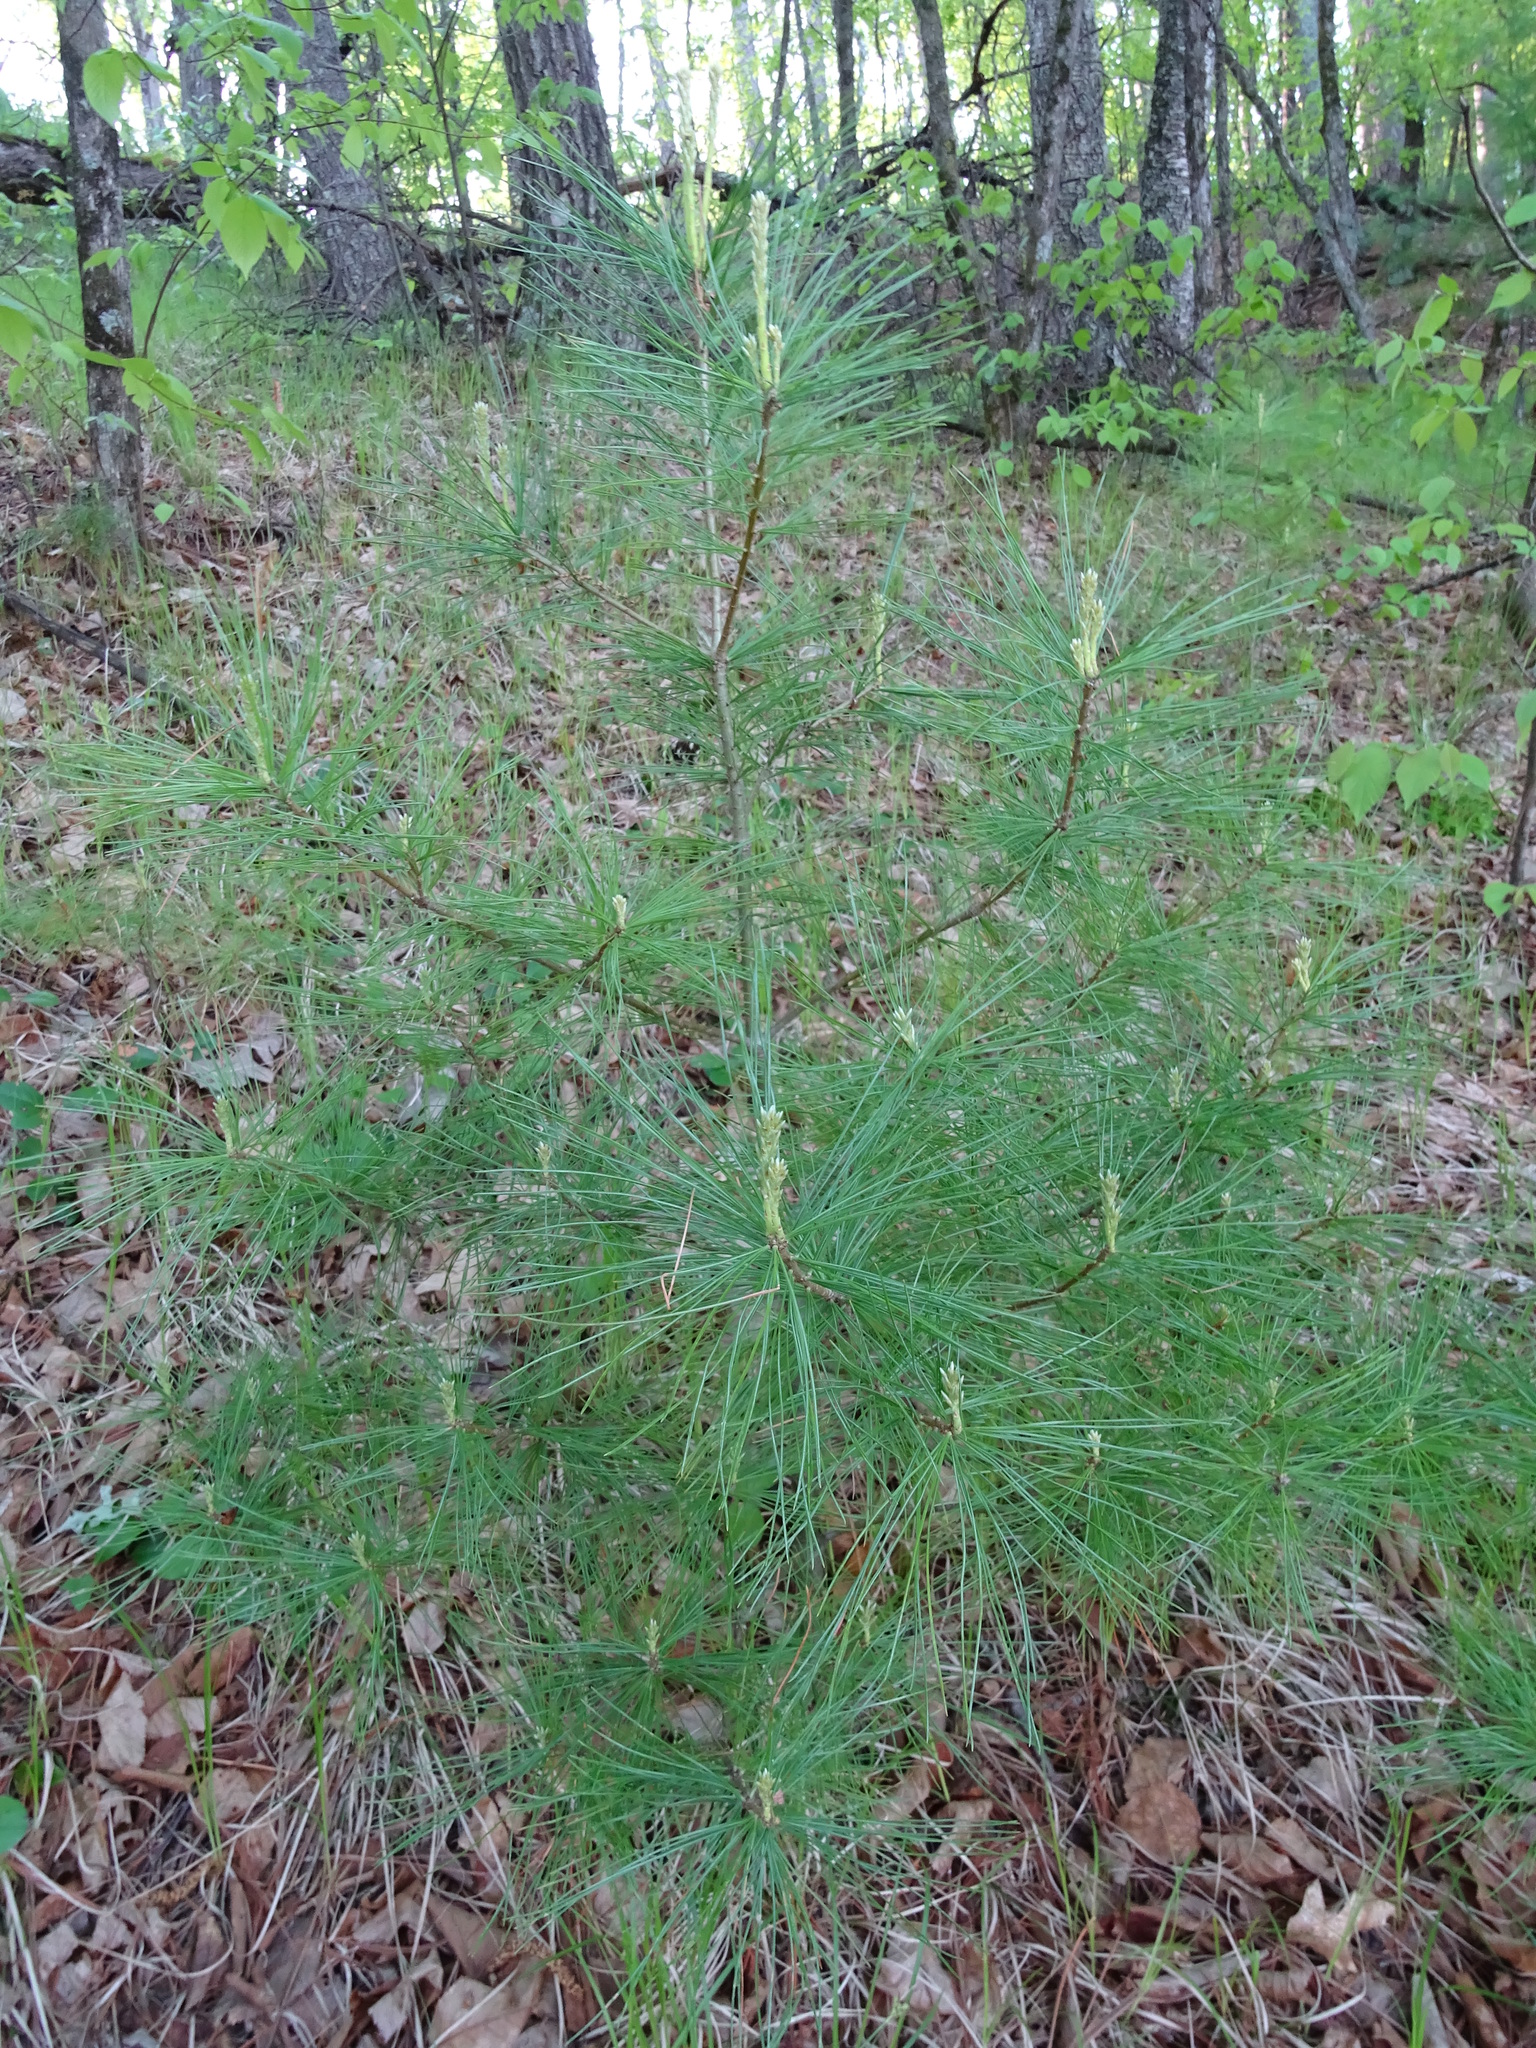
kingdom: Plantae
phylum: Tracheophyta
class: Pinopsida
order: Pinales
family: Pinaceae
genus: Pinus
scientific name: Pinus strobus
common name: Weymouth pine
